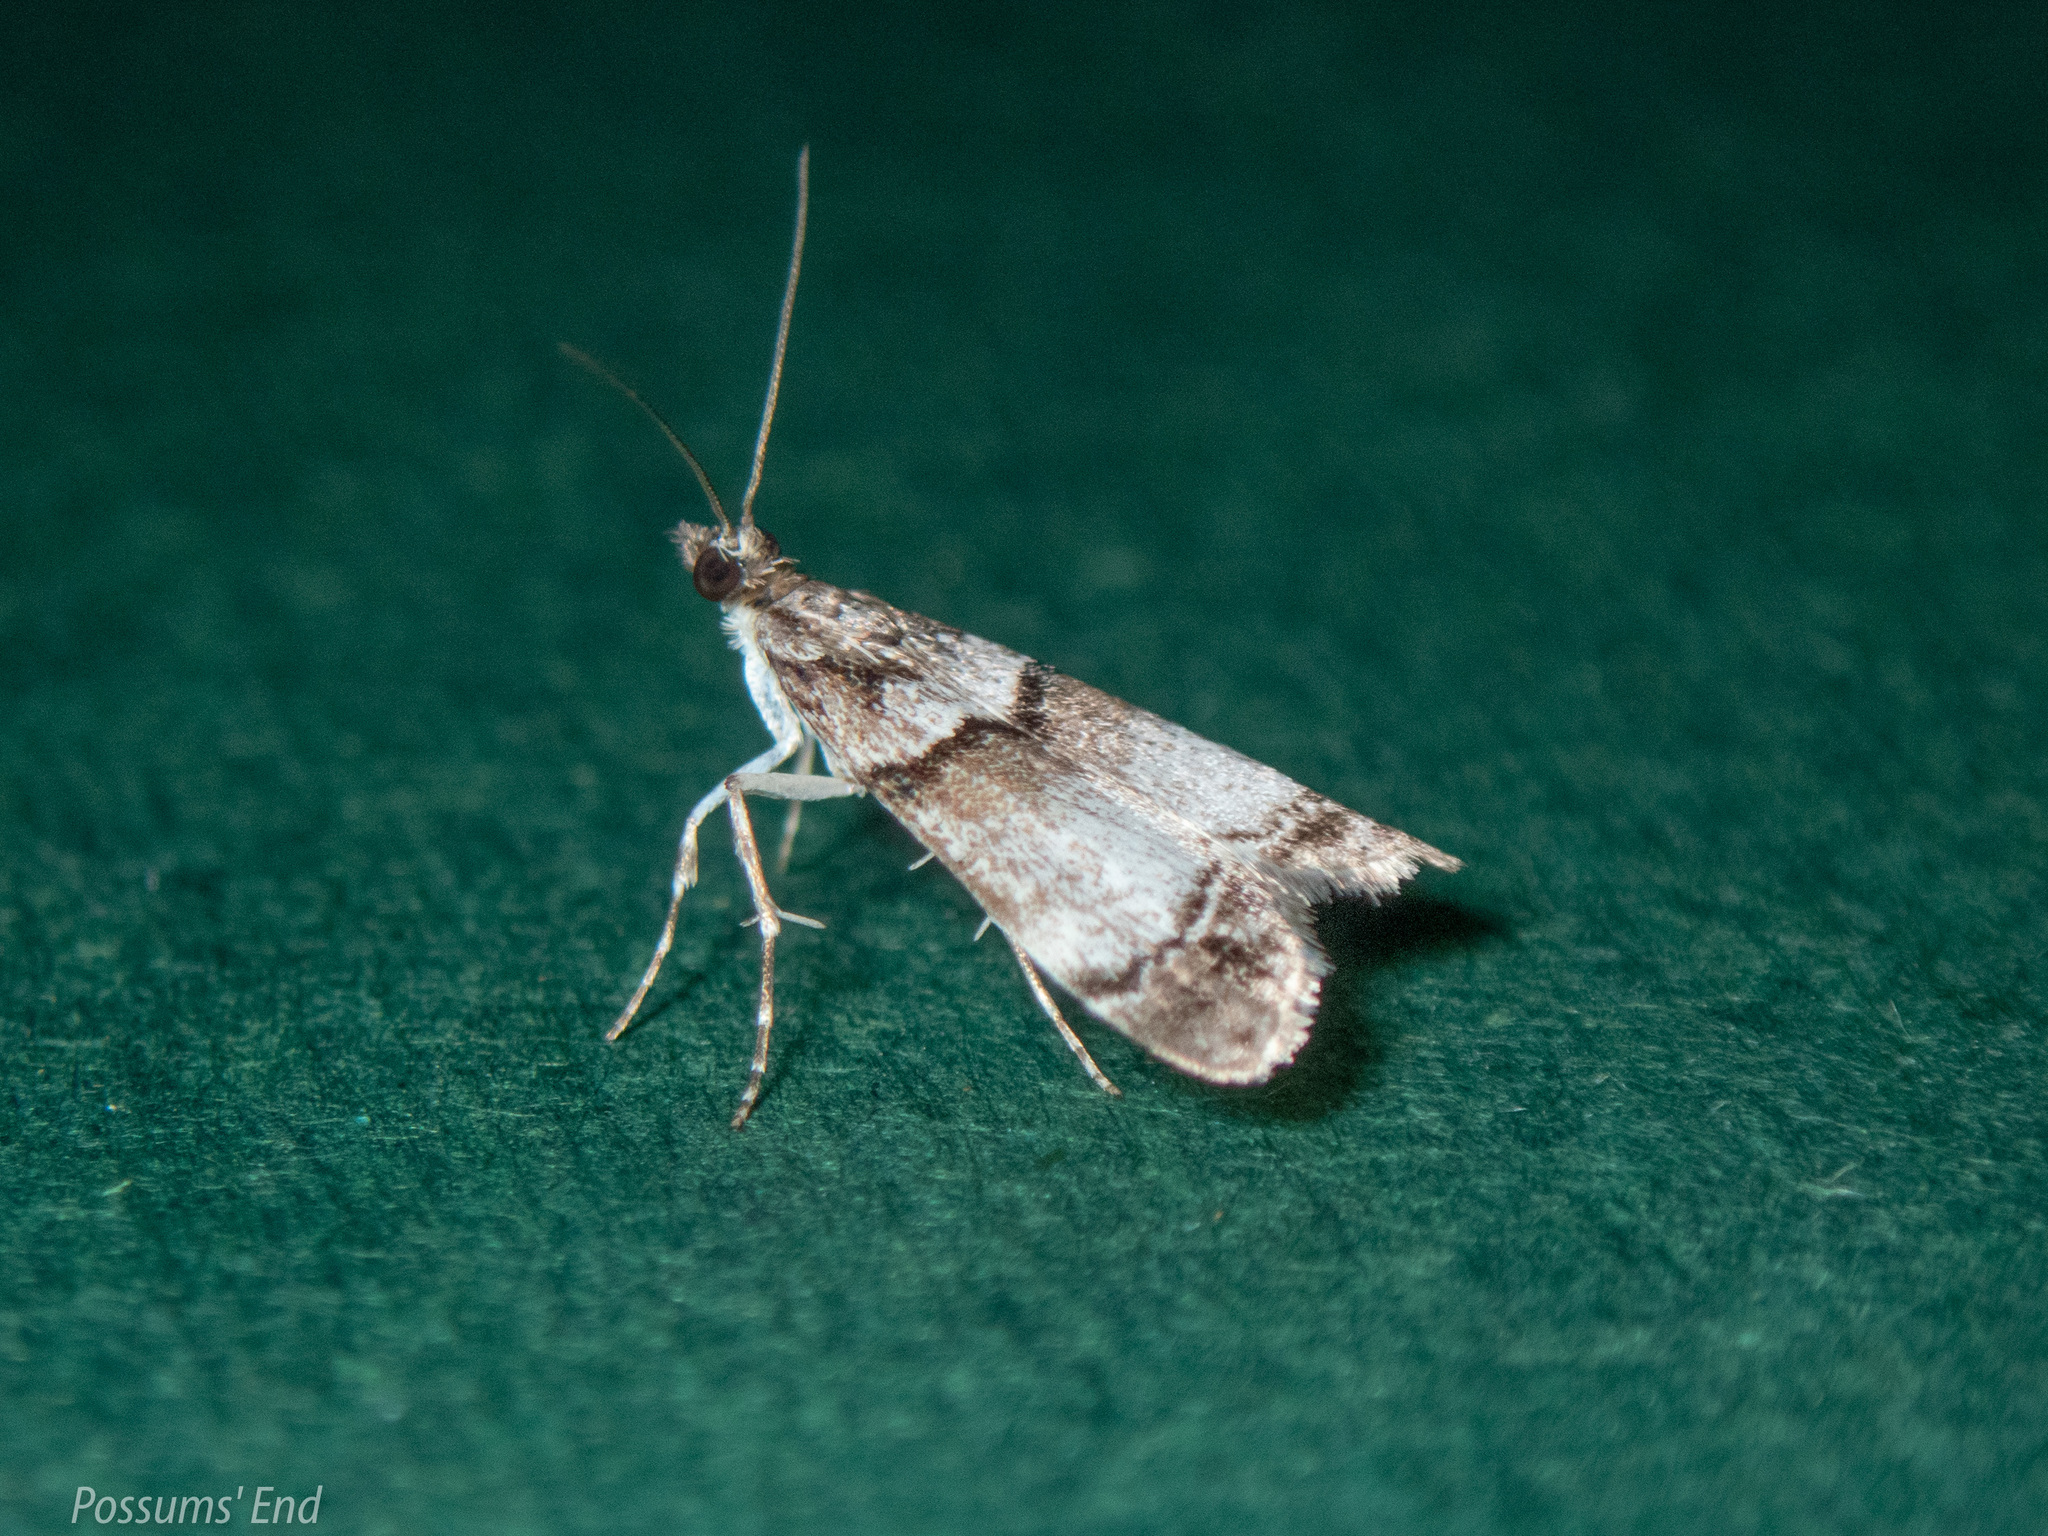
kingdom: Animalia
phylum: Arthropoda
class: Insecta
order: Lepidoptera
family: Crambidae
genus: Eudonia
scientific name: Eudonia choristis
